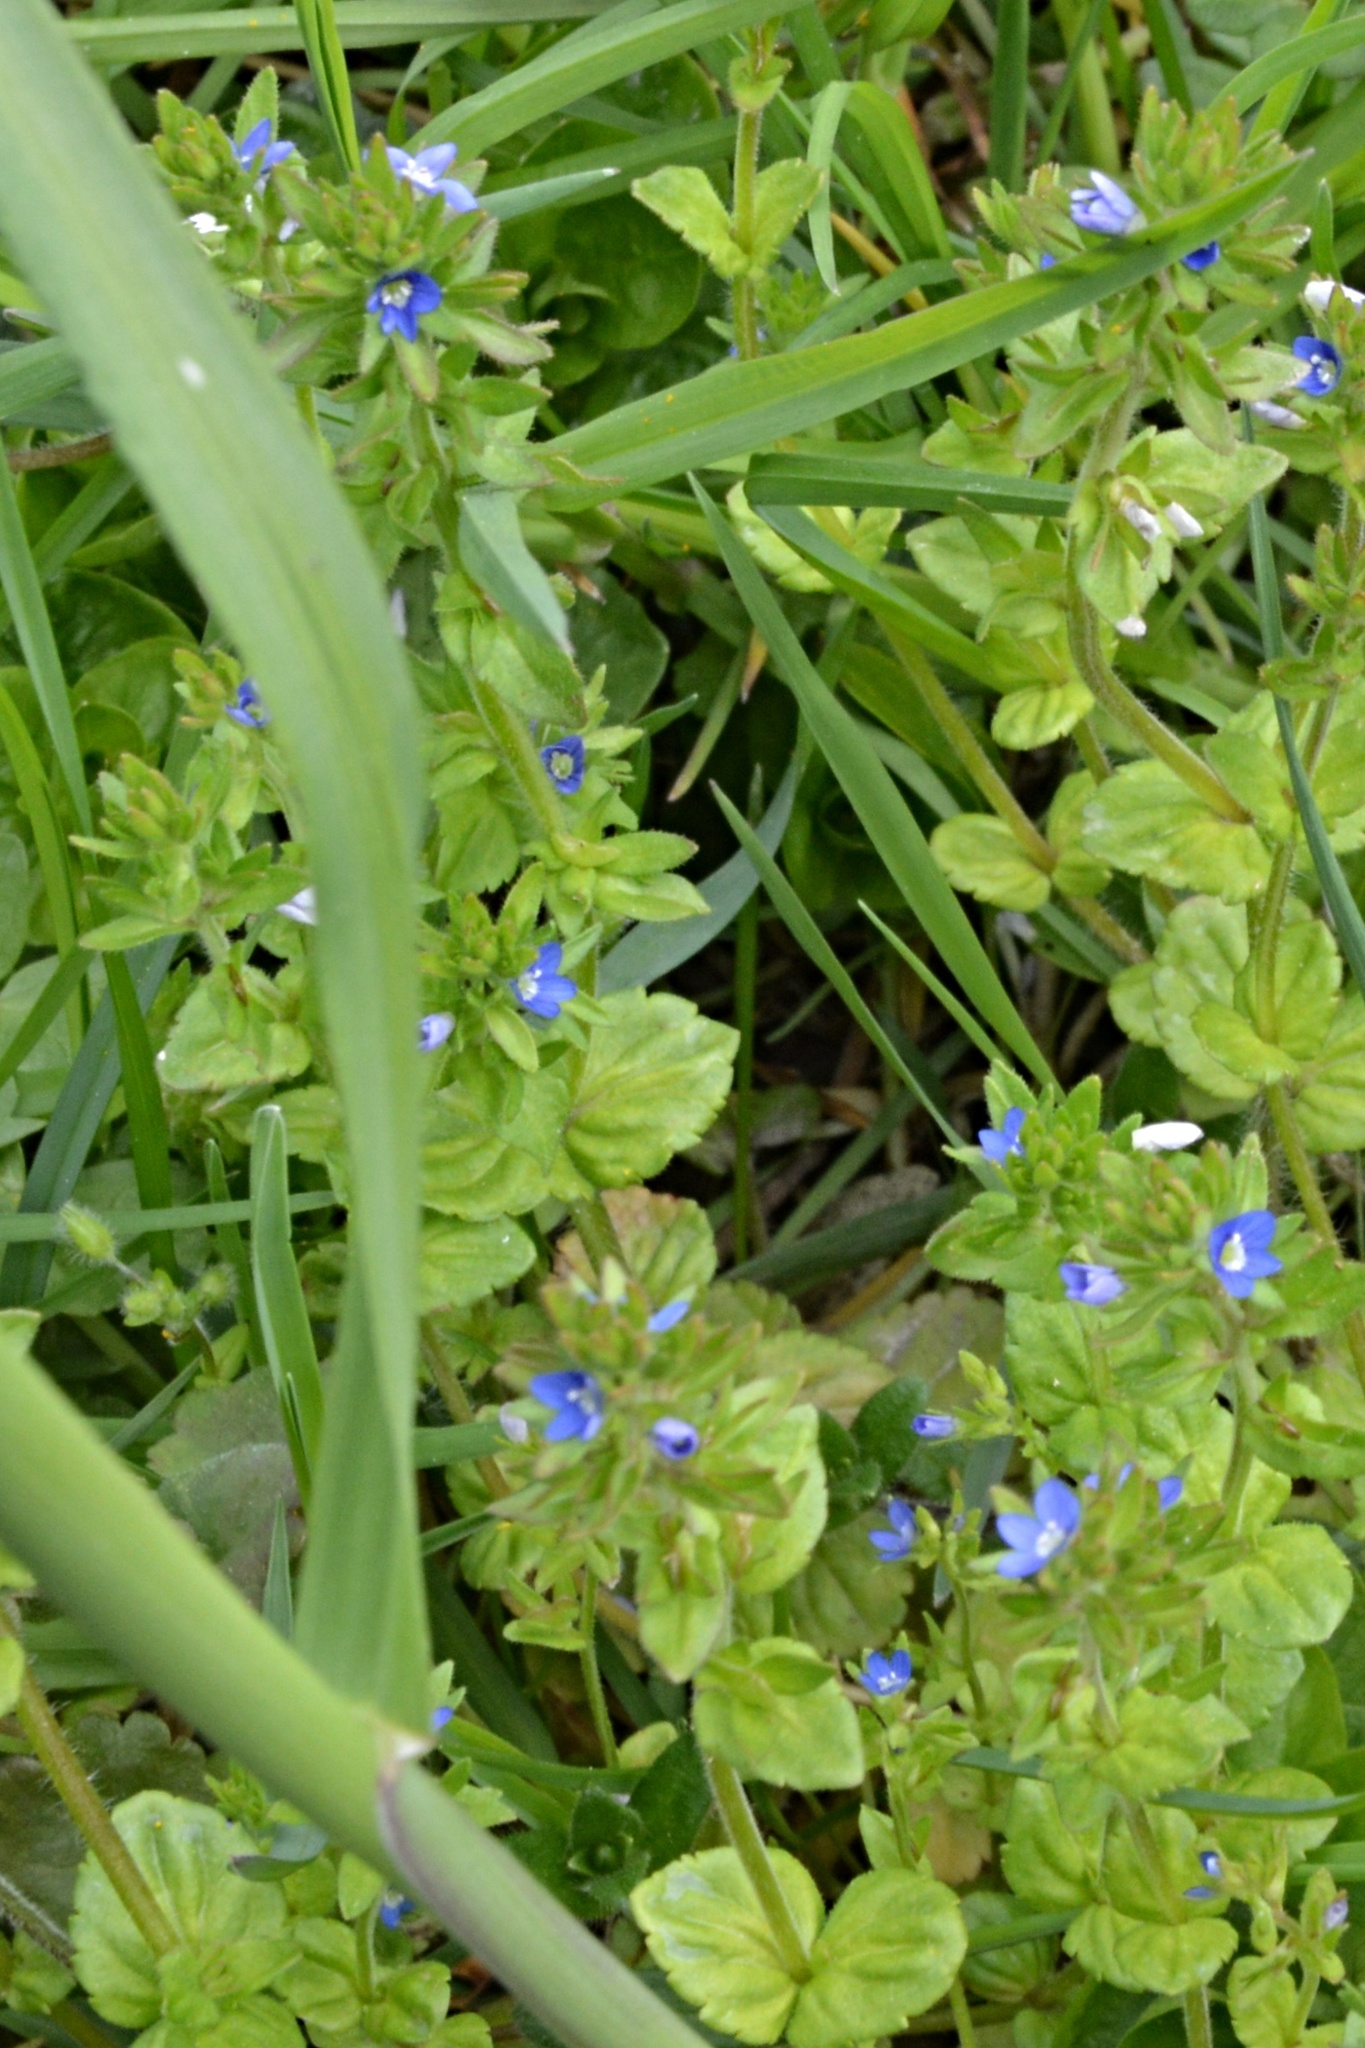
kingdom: Plantae
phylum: Tracheophyta
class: Magnoliopsida
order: Lamiales
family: Plantaginaceae
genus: Veronica
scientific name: Veronica arvensis
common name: Corn speedwell
